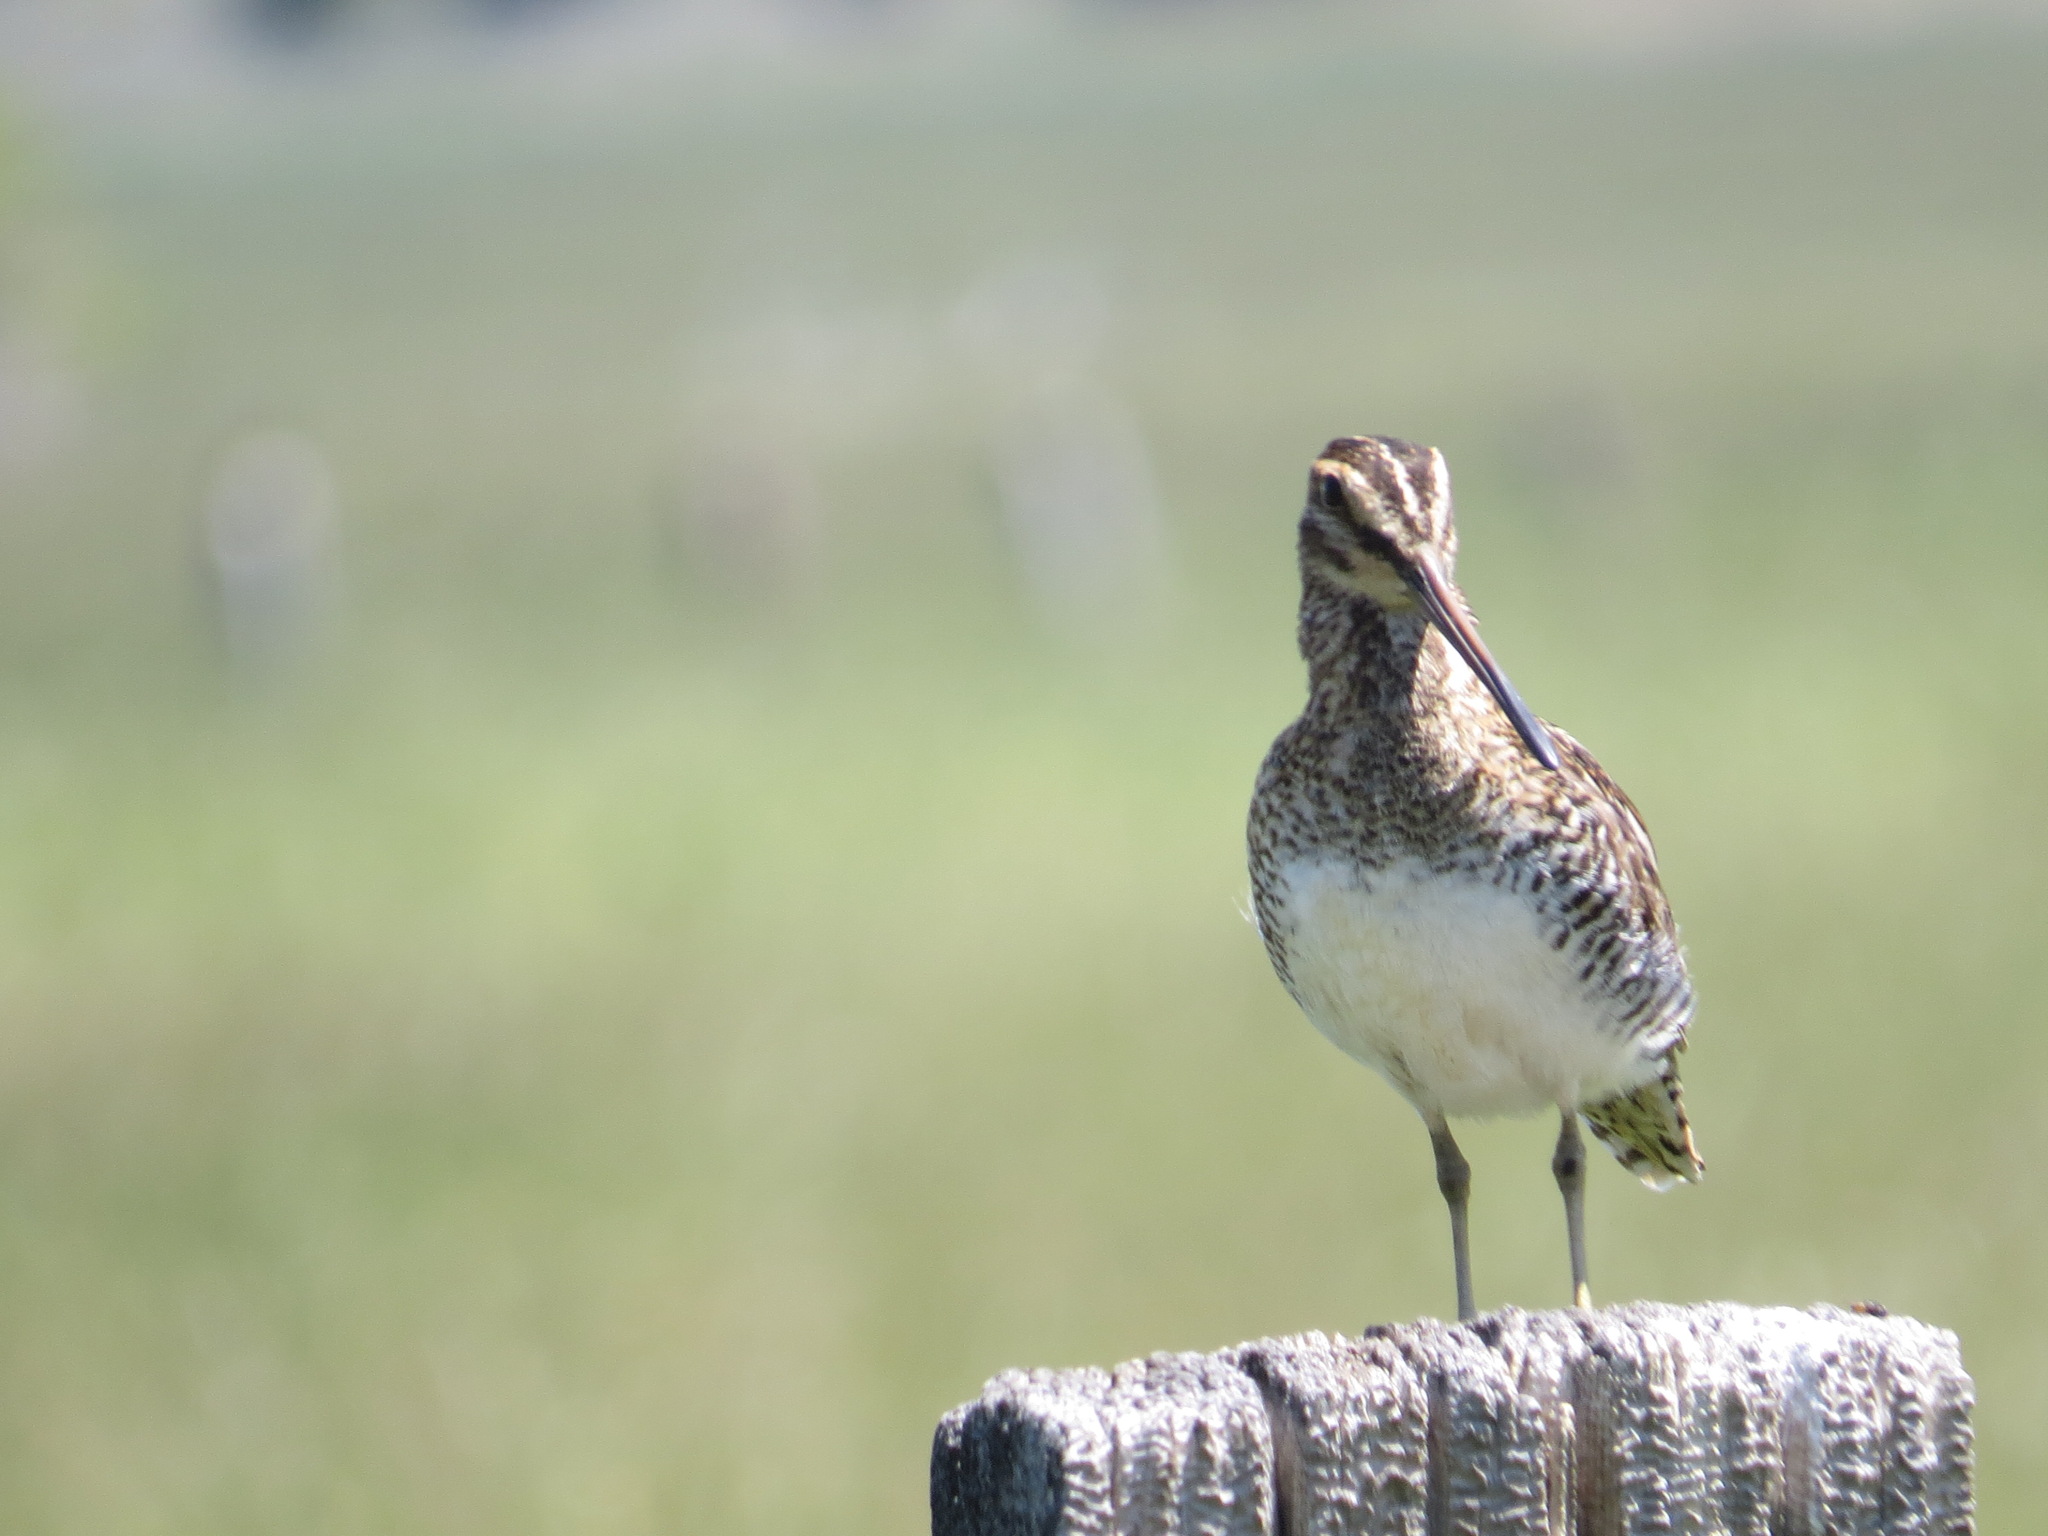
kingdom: Animalia
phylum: Chordata
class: Aves
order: Charadriiformes
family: Scolopacidae
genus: Gallinago
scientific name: Gallinago delicata
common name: Wilson's snipe
